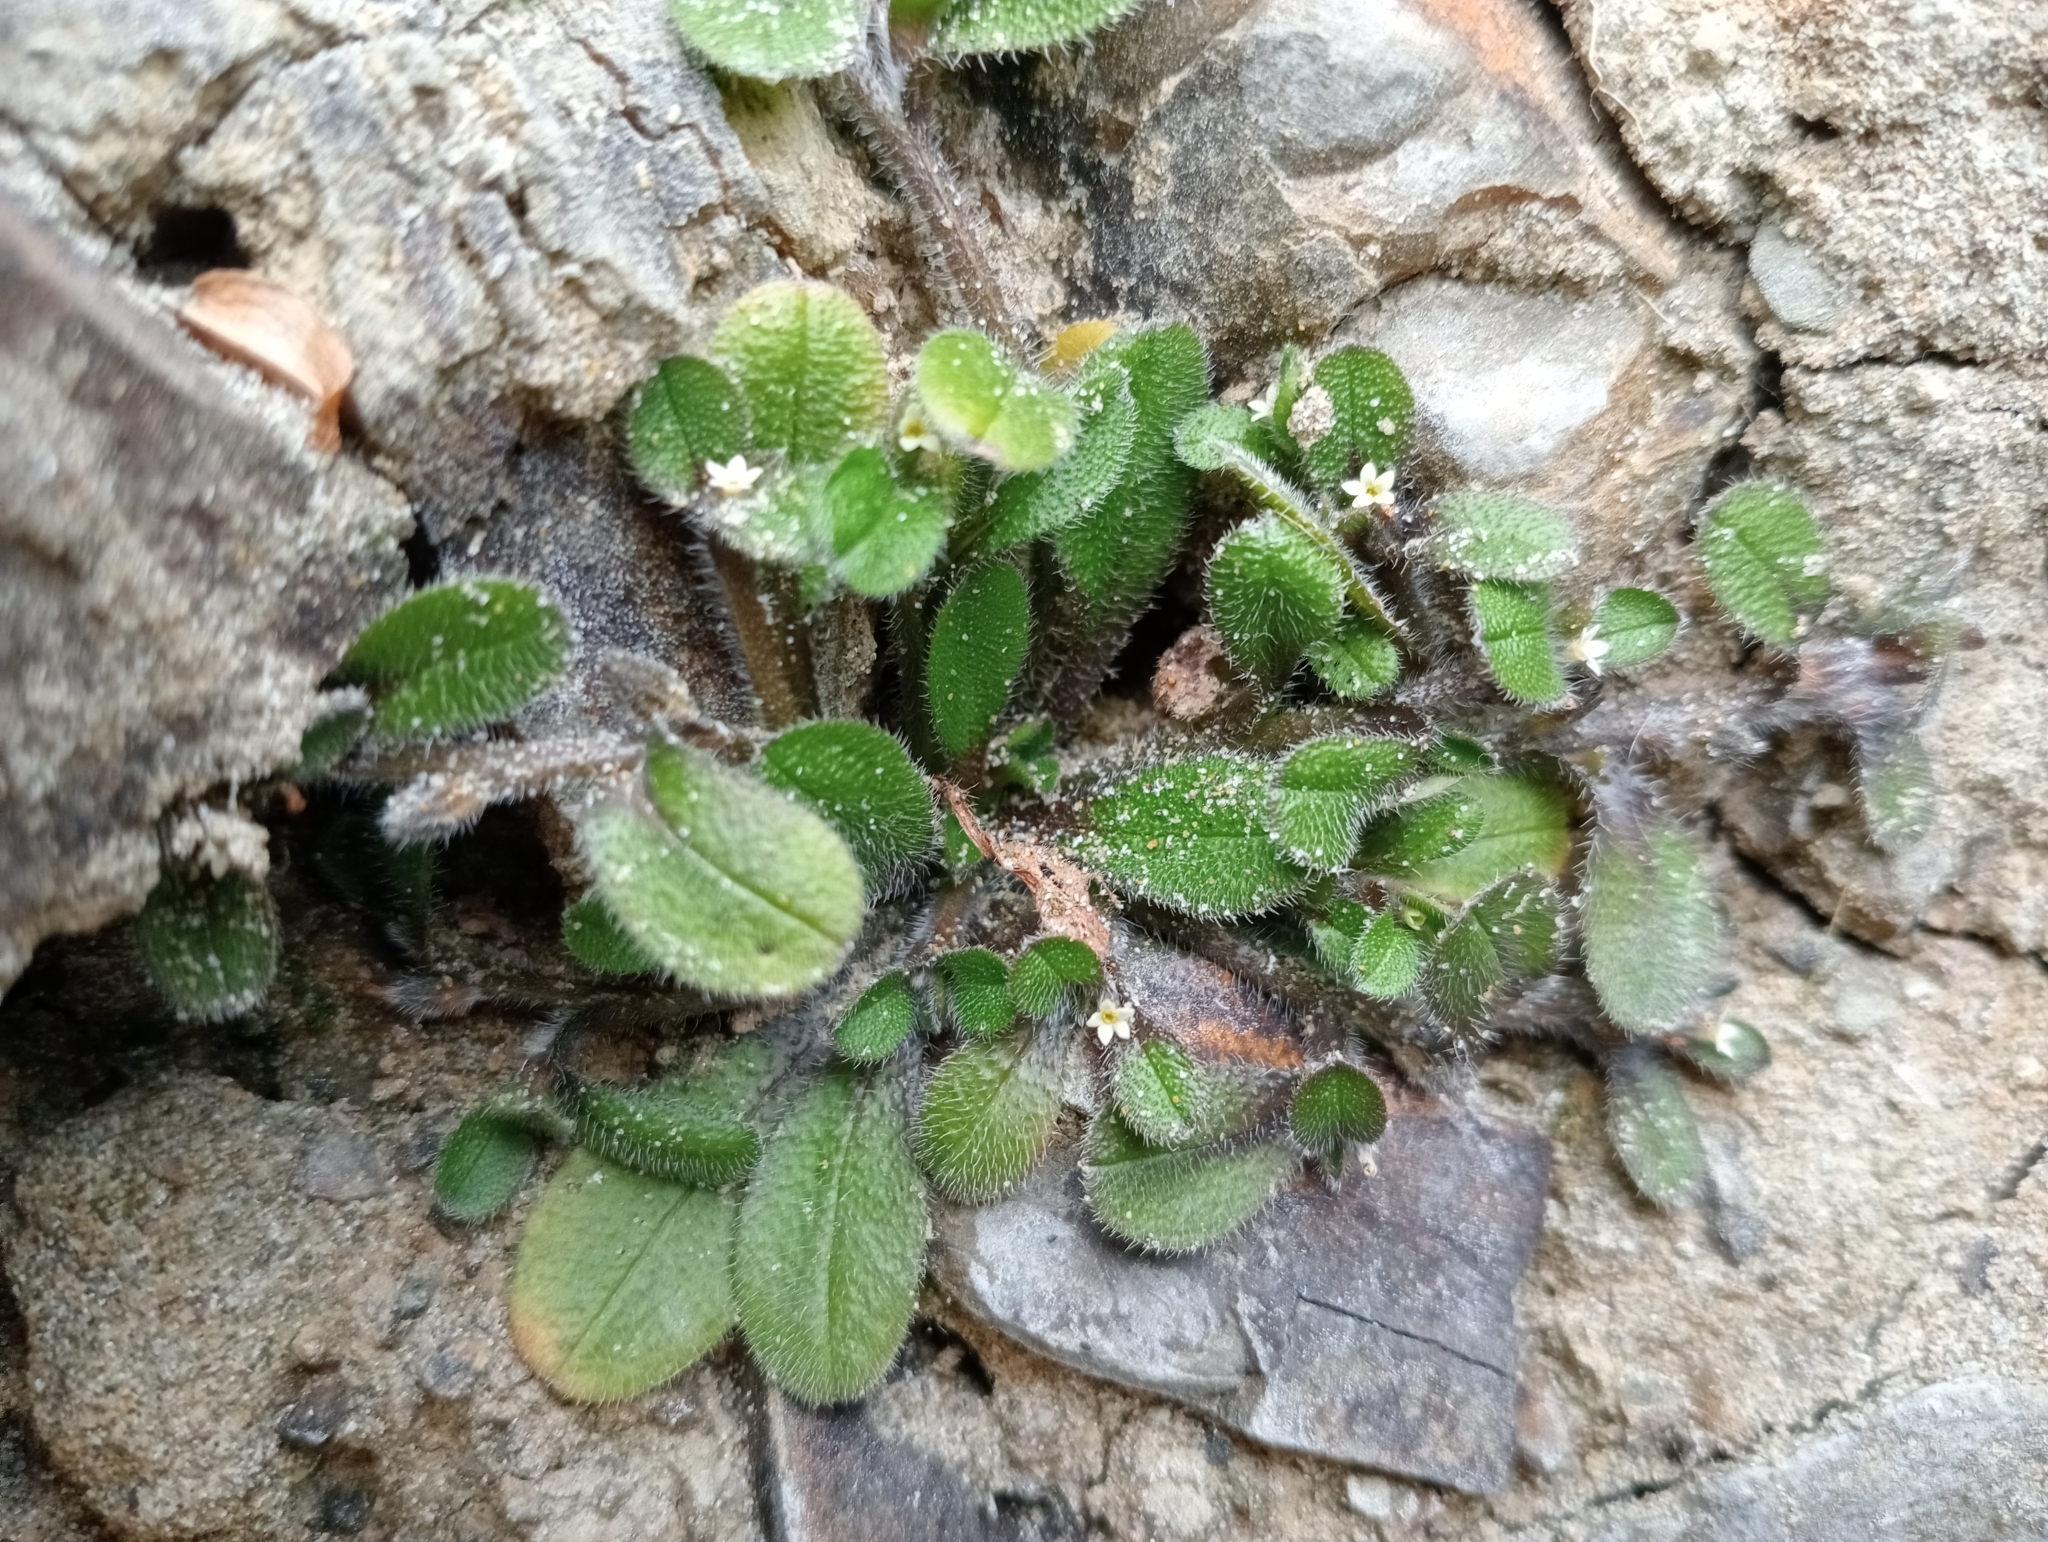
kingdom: Plantae
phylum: Tracheophyta
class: Magnoliopsida
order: Boraginales
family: Boraginaceae
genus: Myosotis
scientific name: Myosotis antarctica
